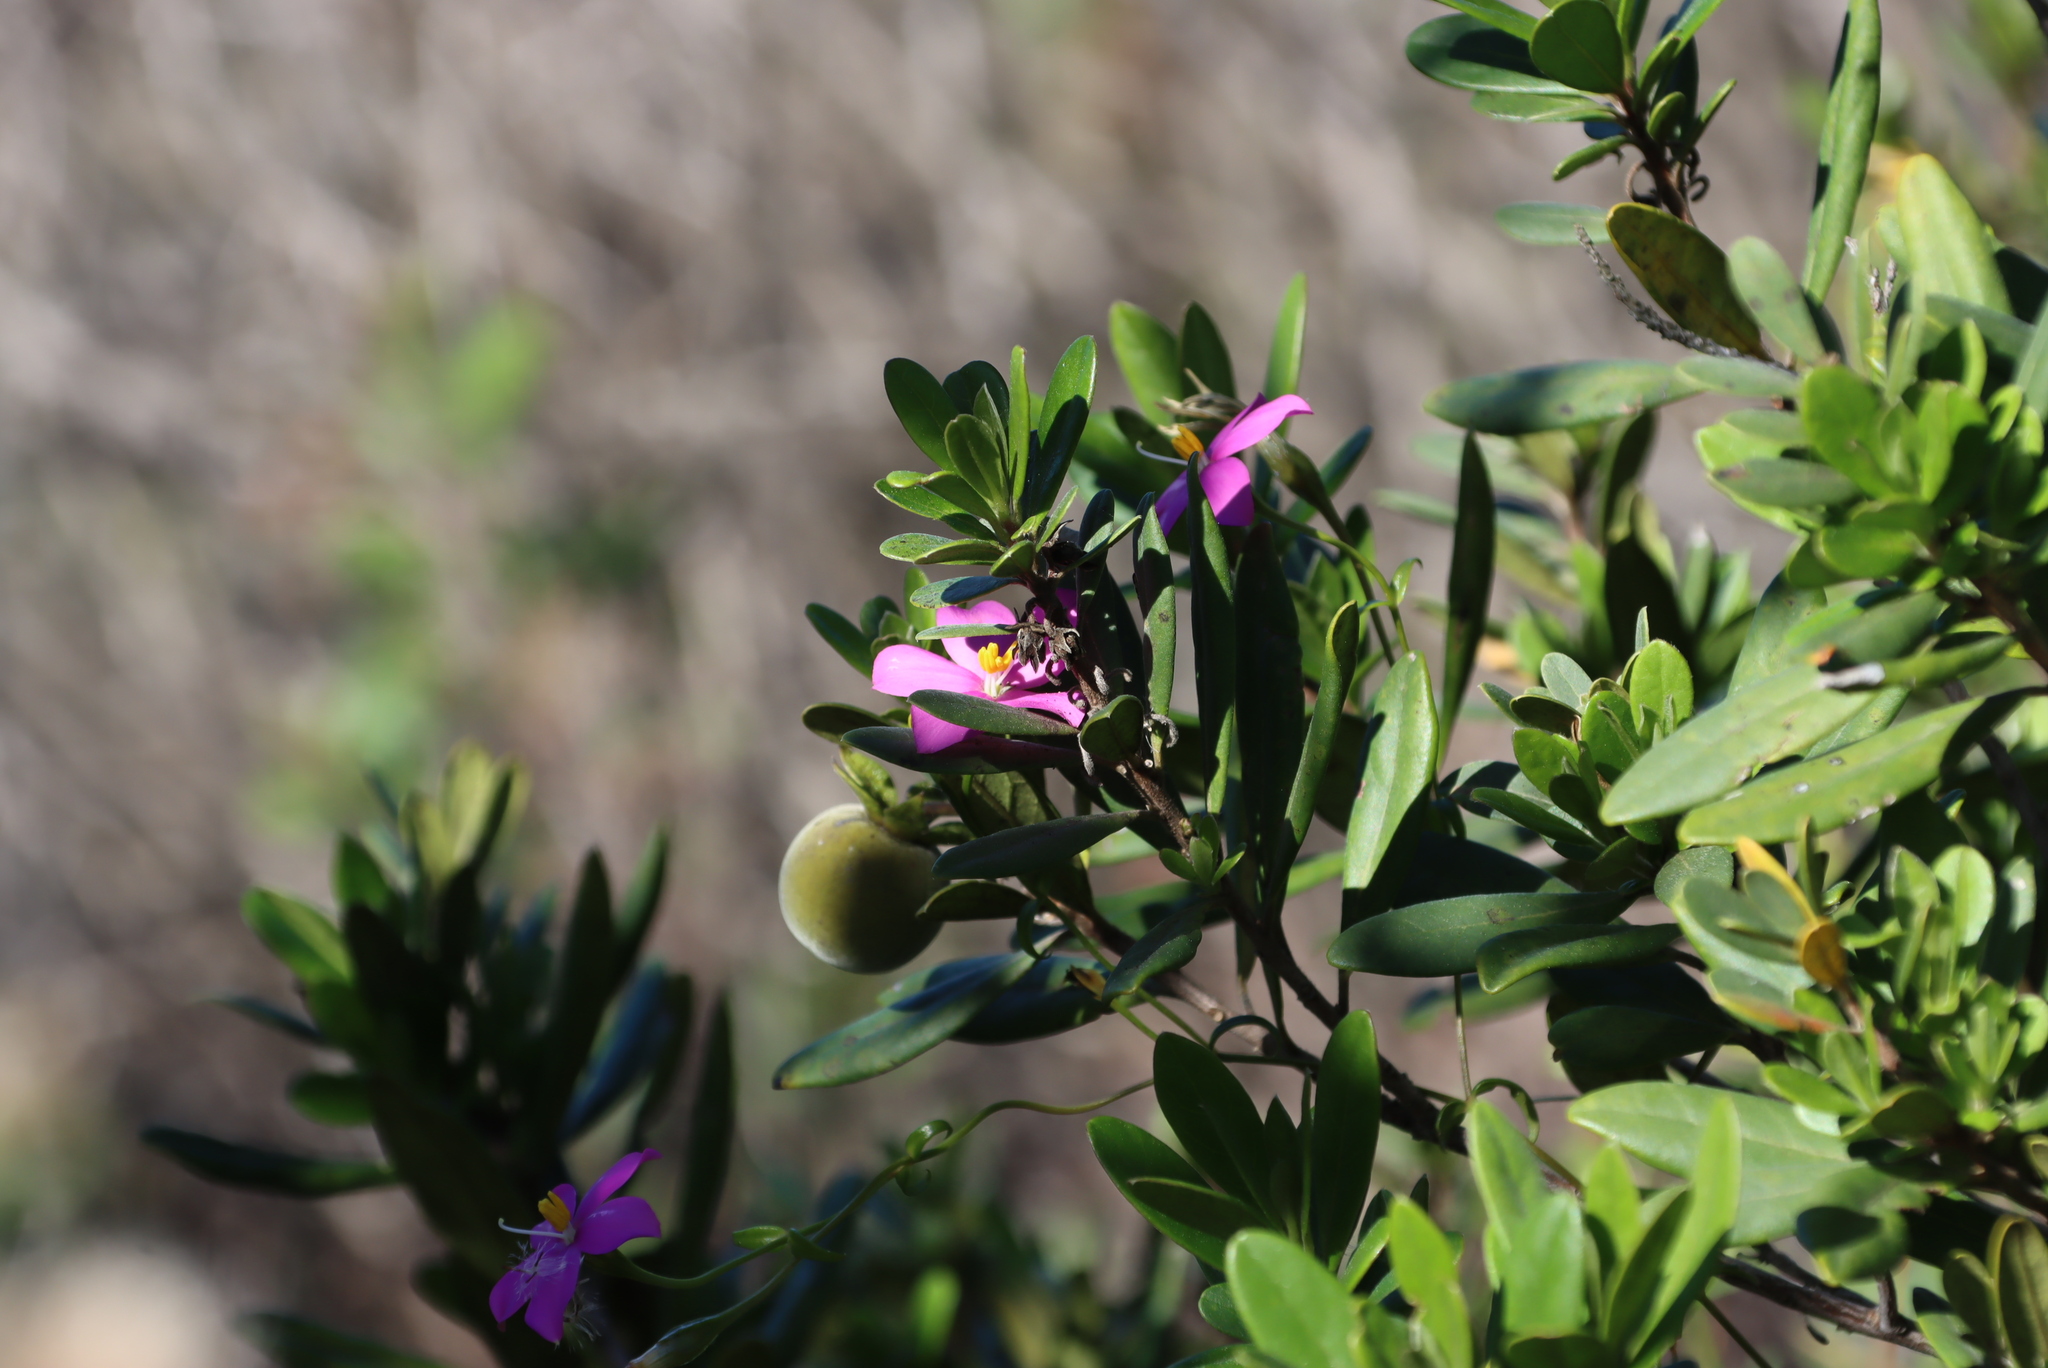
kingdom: Plantae
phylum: Tracheophyta
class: Magnoliopsida
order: Ericales
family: Ebenaceae
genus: Diospyros
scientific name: Diospyros dichrophylla
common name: Common star-apple
